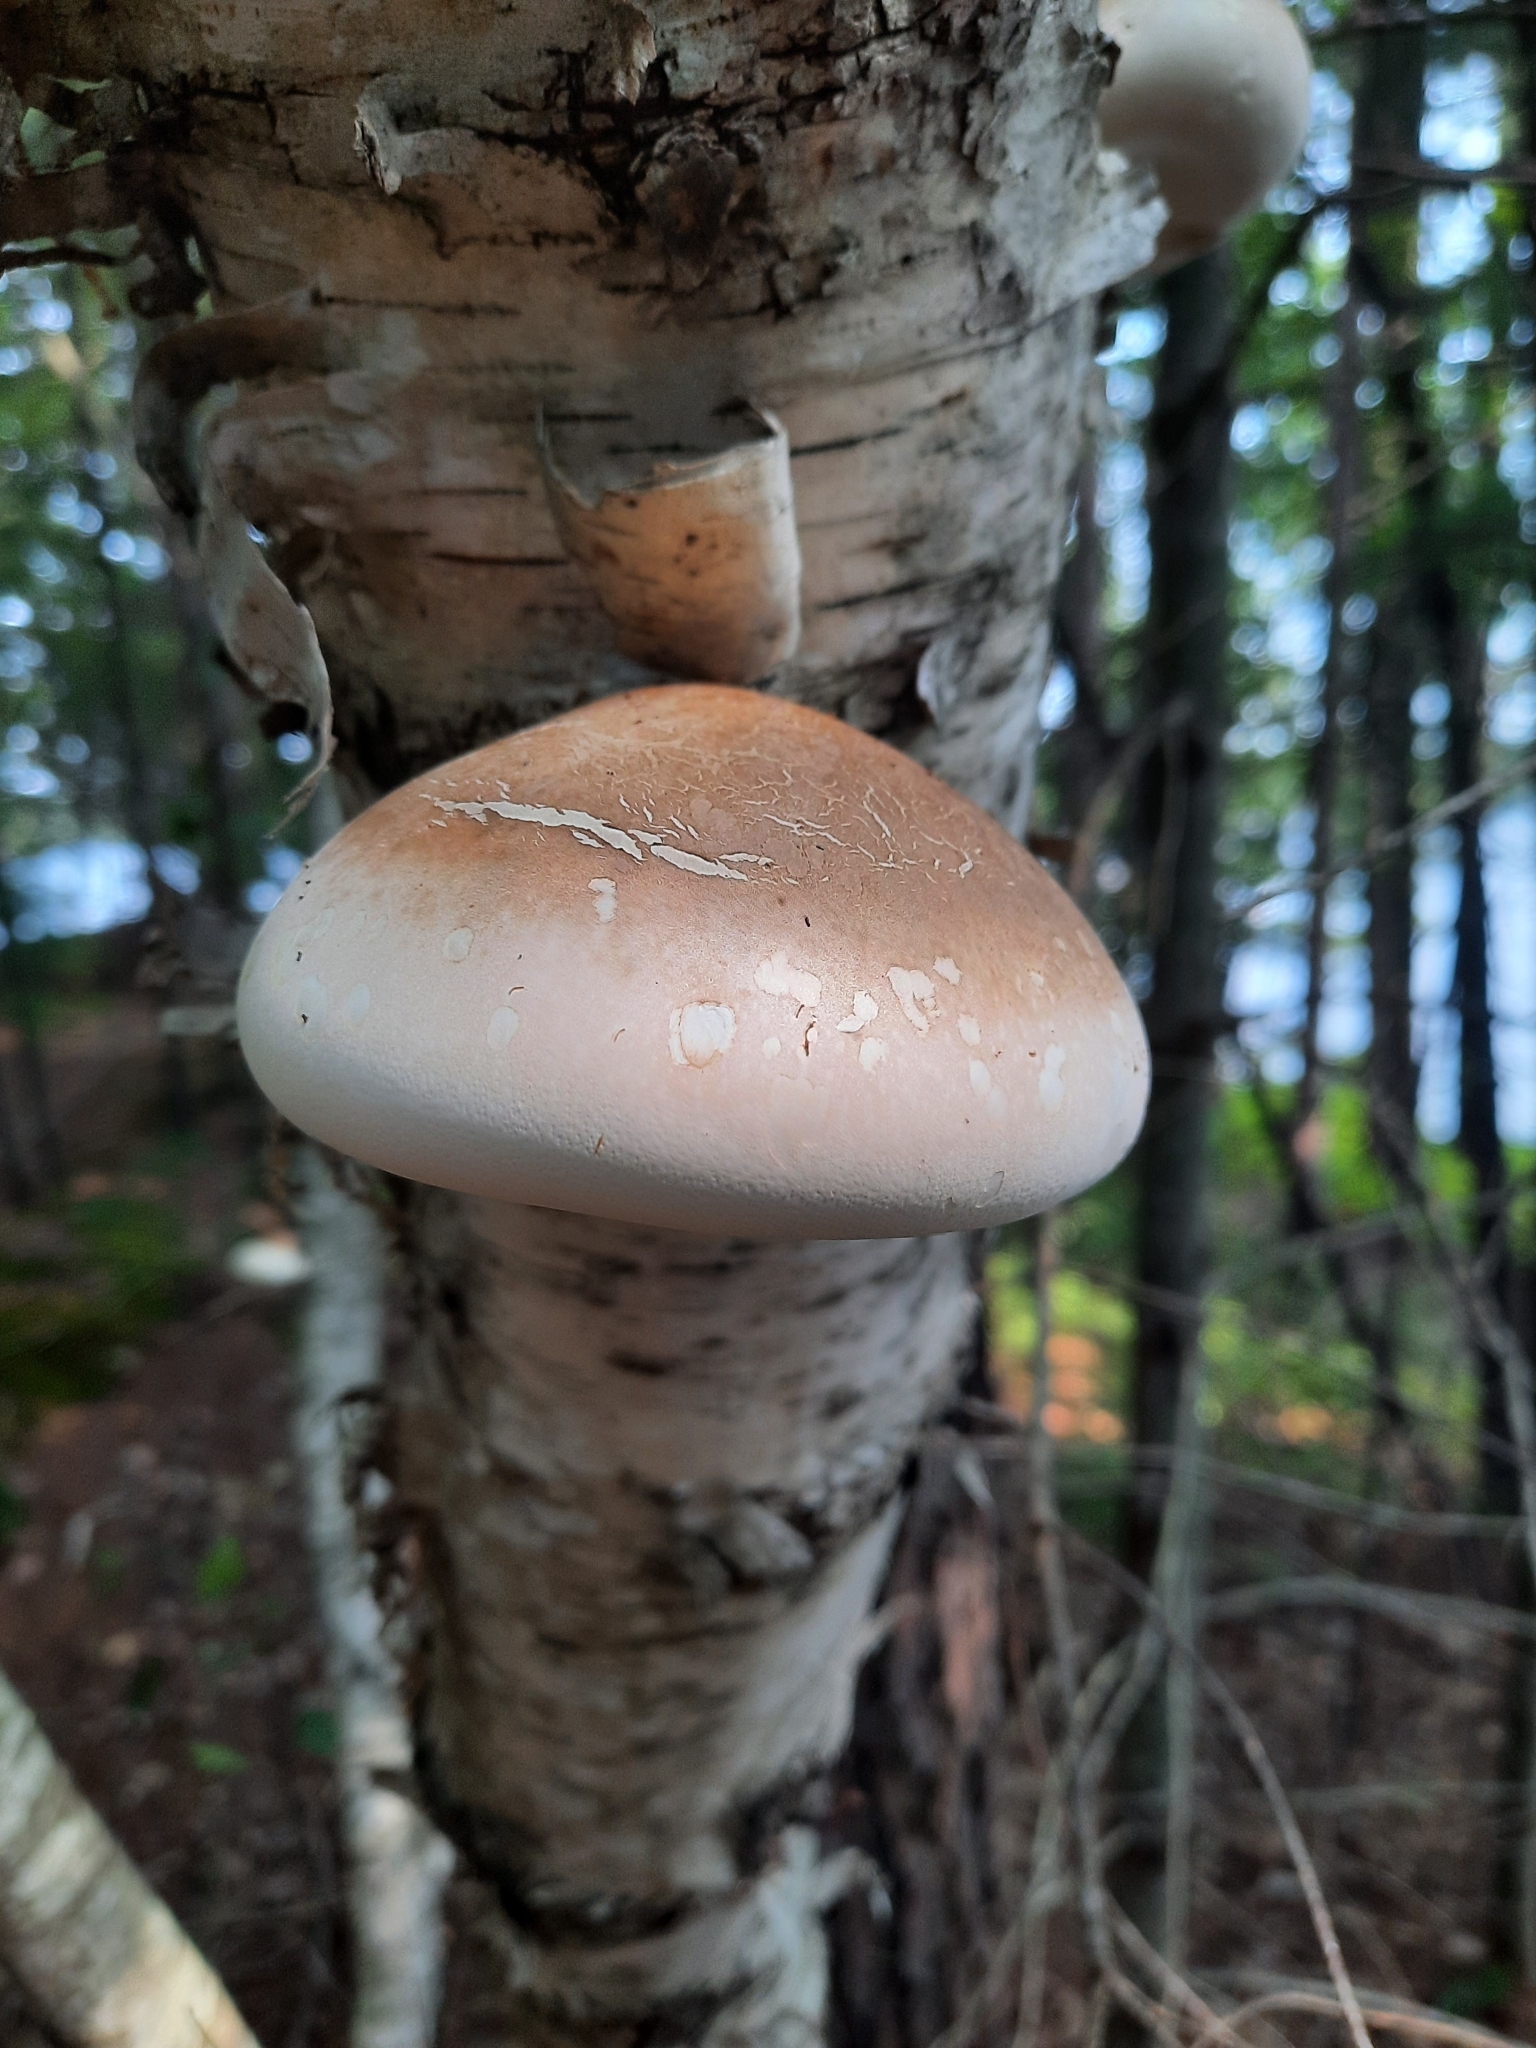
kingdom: Fungi
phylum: Basidiomycota
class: Agaricomycetes
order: Polyporales
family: Fomitopsidaceae
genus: Fomitopsis
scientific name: Fomitopsis betulina
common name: Birch polypore
